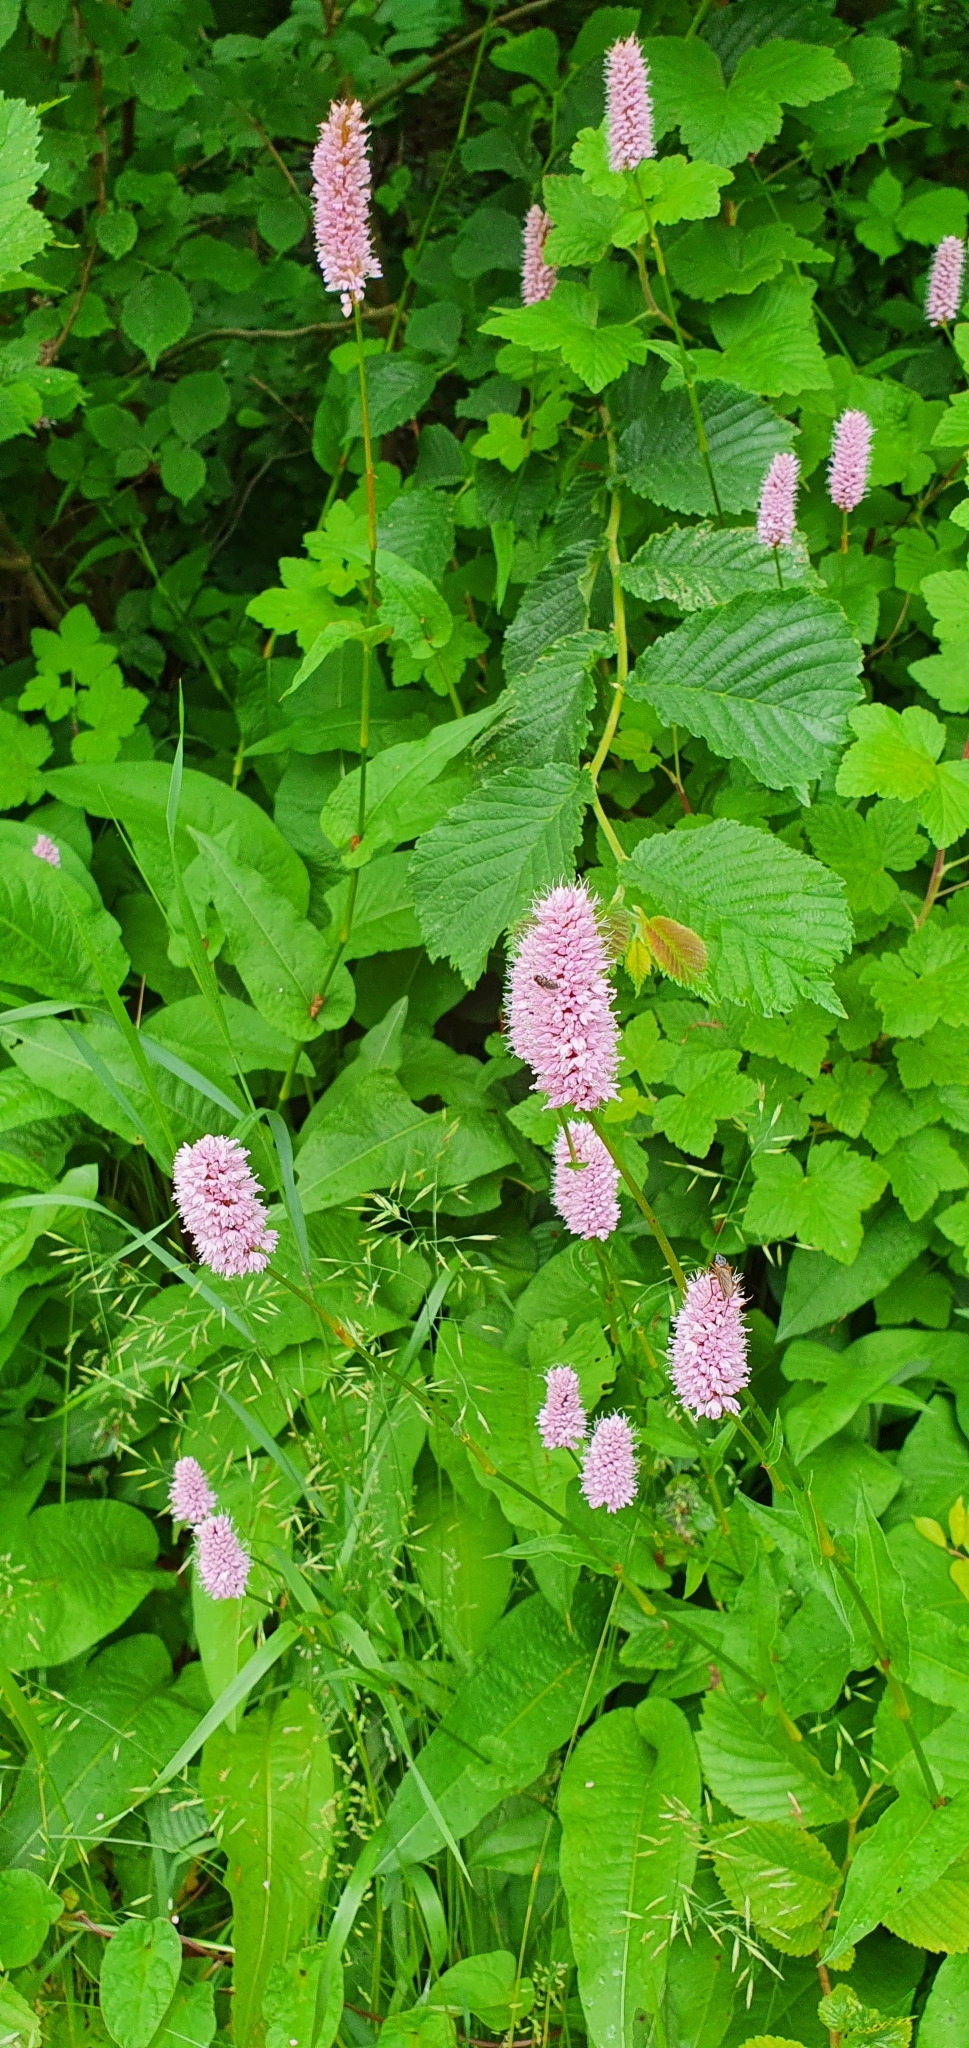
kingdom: Plantae
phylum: Tracheophyta
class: Magnoliopsida
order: Caryophyllales
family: Polygonaceae
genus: Bistorta
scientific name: Bistorta officinalis
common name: Common bistort
